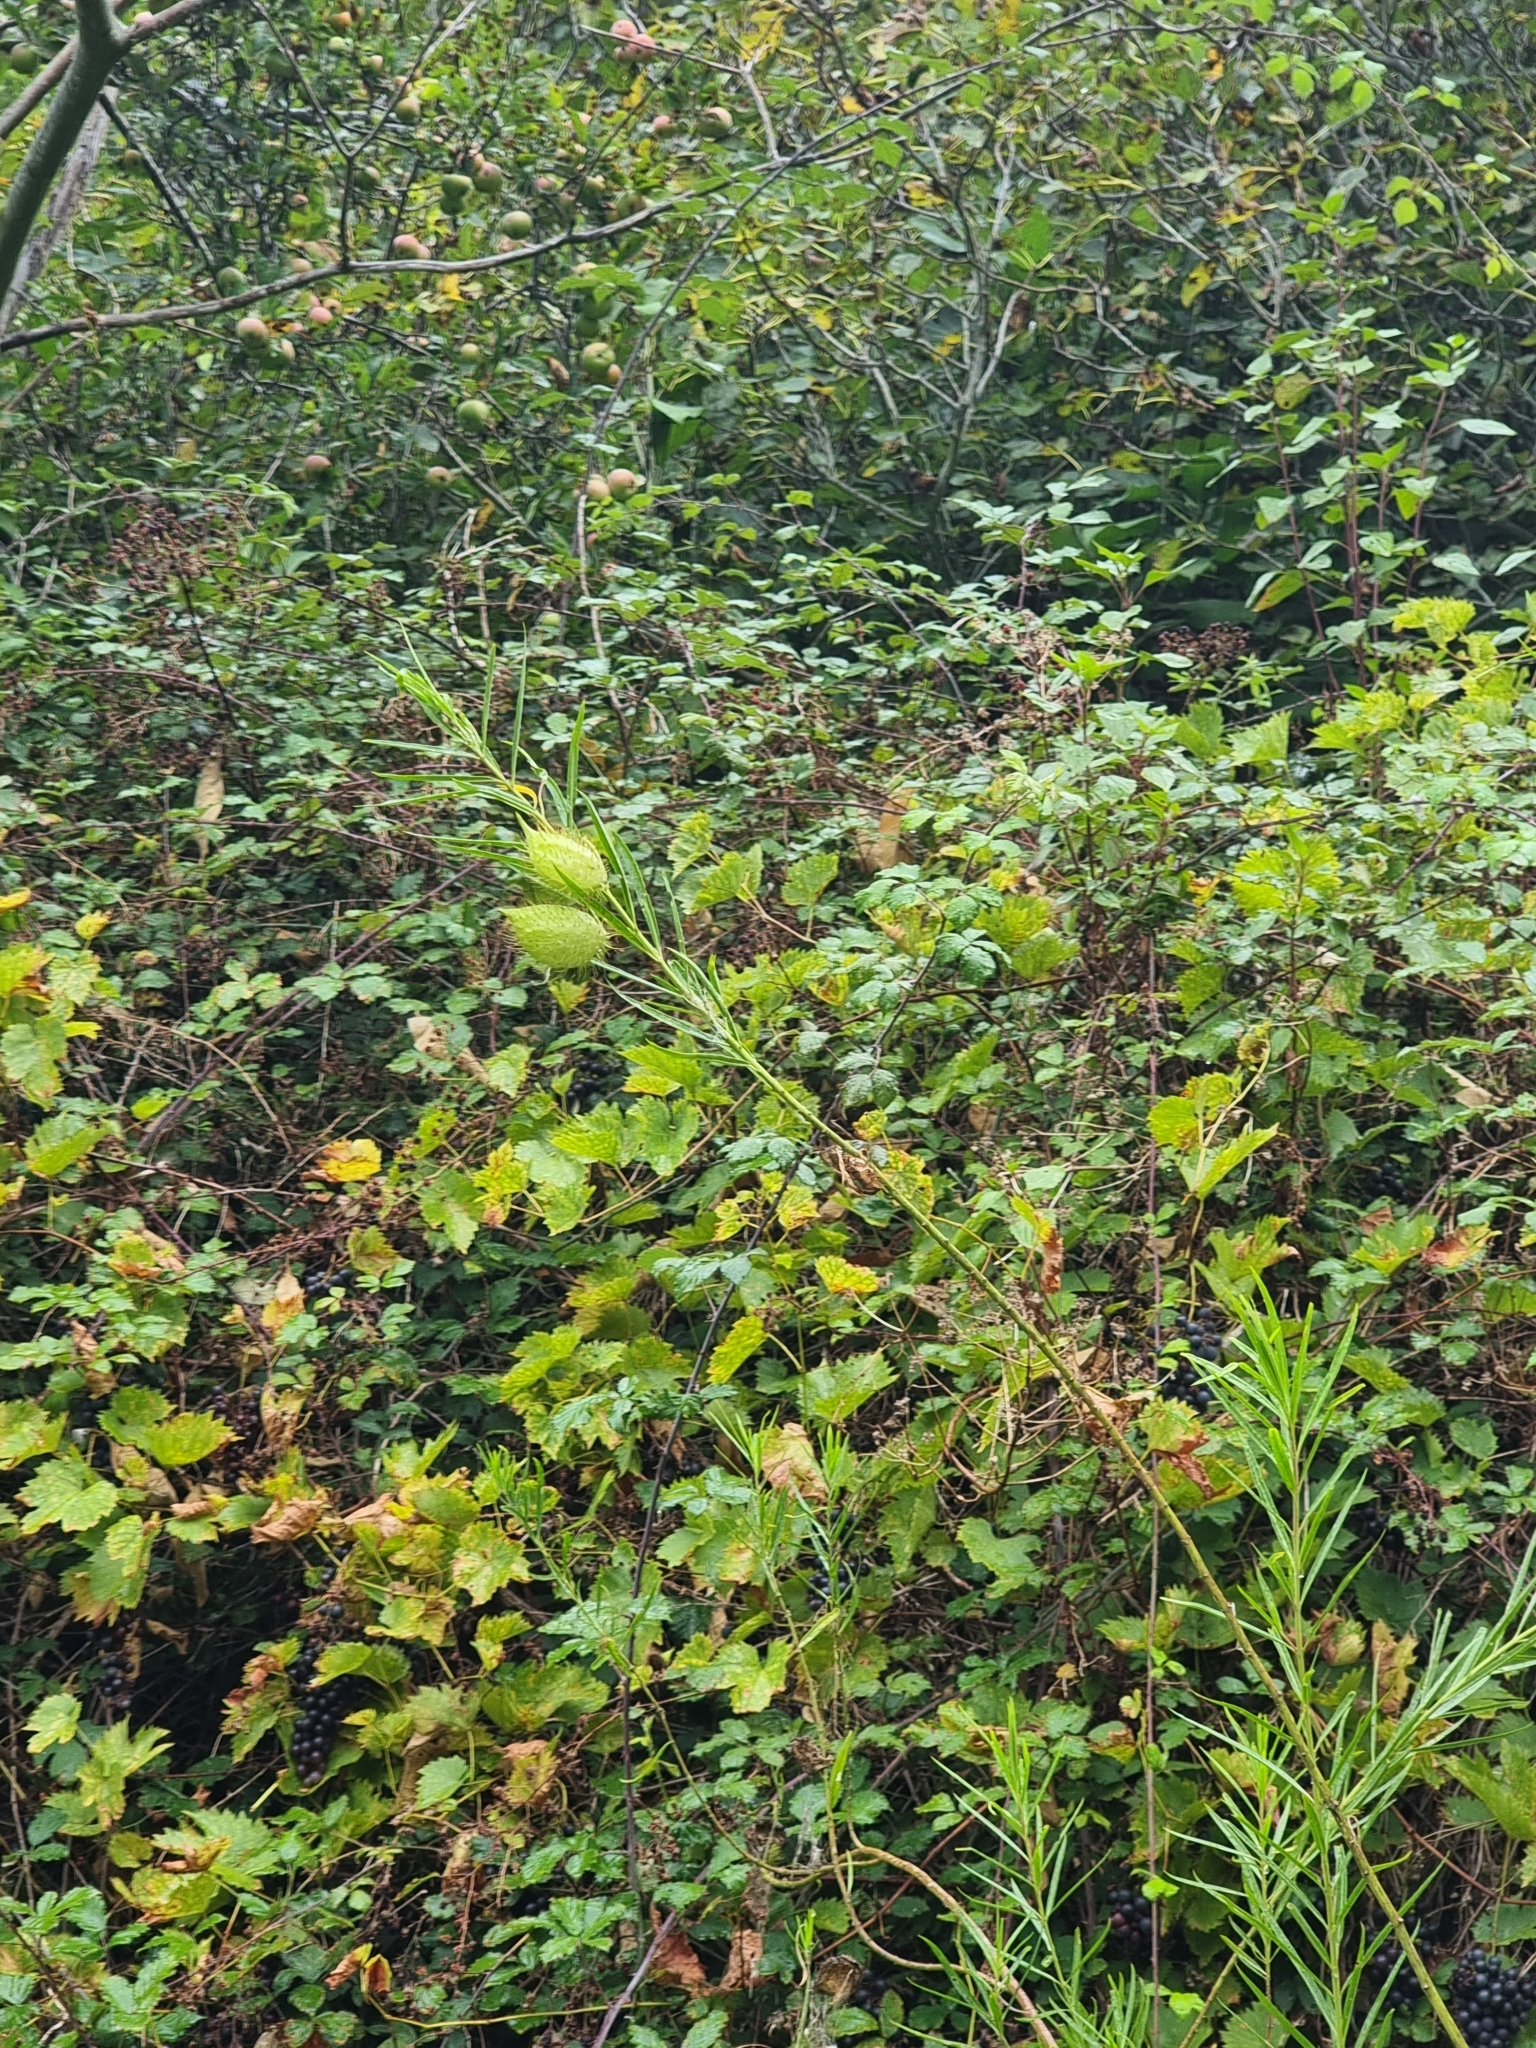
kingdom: Plantae
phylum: Tracheophyta
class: Magnoliopsida
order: Gentianales
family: Apocynaceae
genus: Gomphocarpus
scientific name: Gomphocarpus fruticosus
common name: Milkweed
